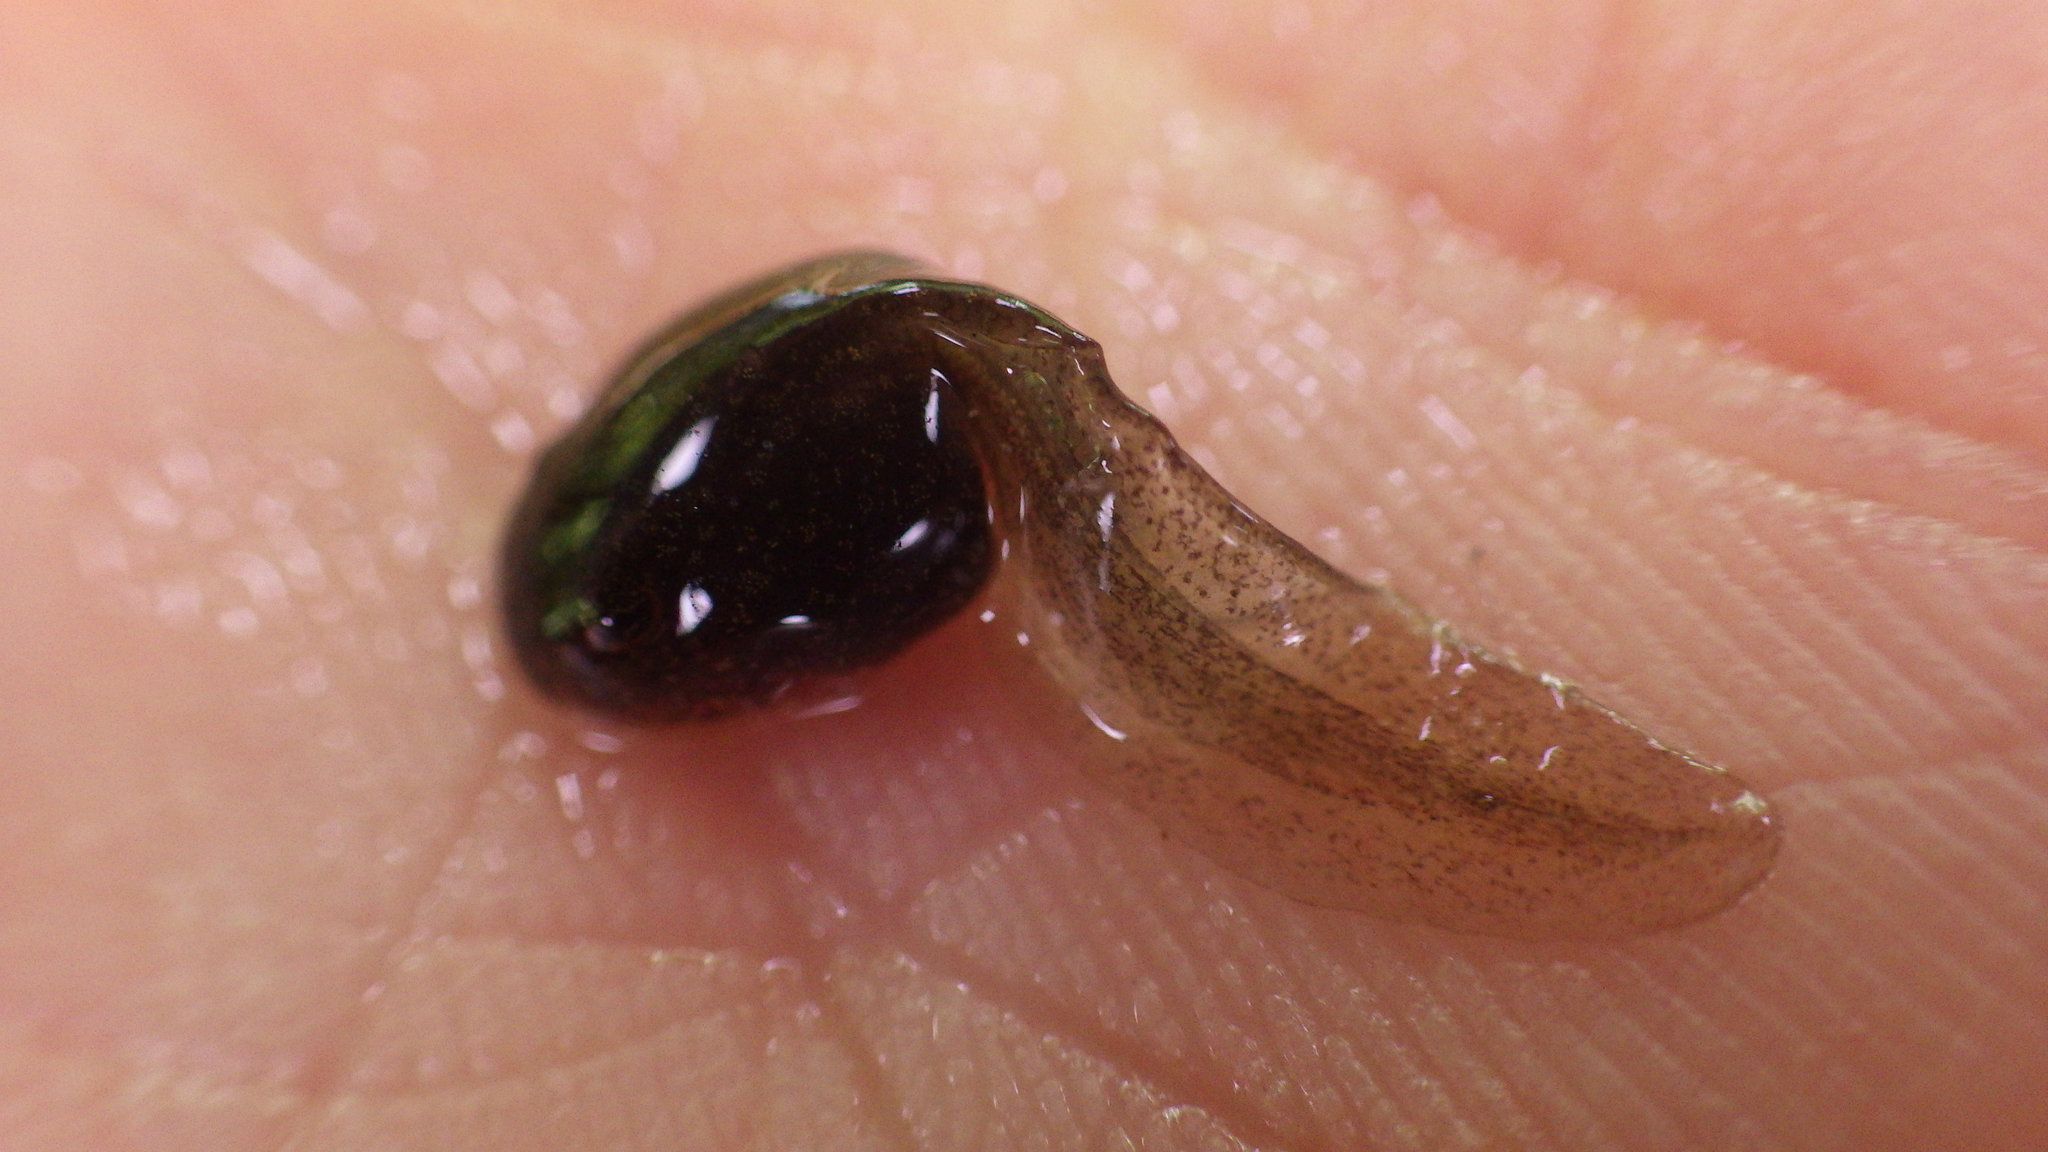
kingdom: Animalia
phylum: Chordata
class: Amphibia
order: Anura
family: Ranidae
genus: Rana
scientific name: Rana temporaria
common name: Common frog
